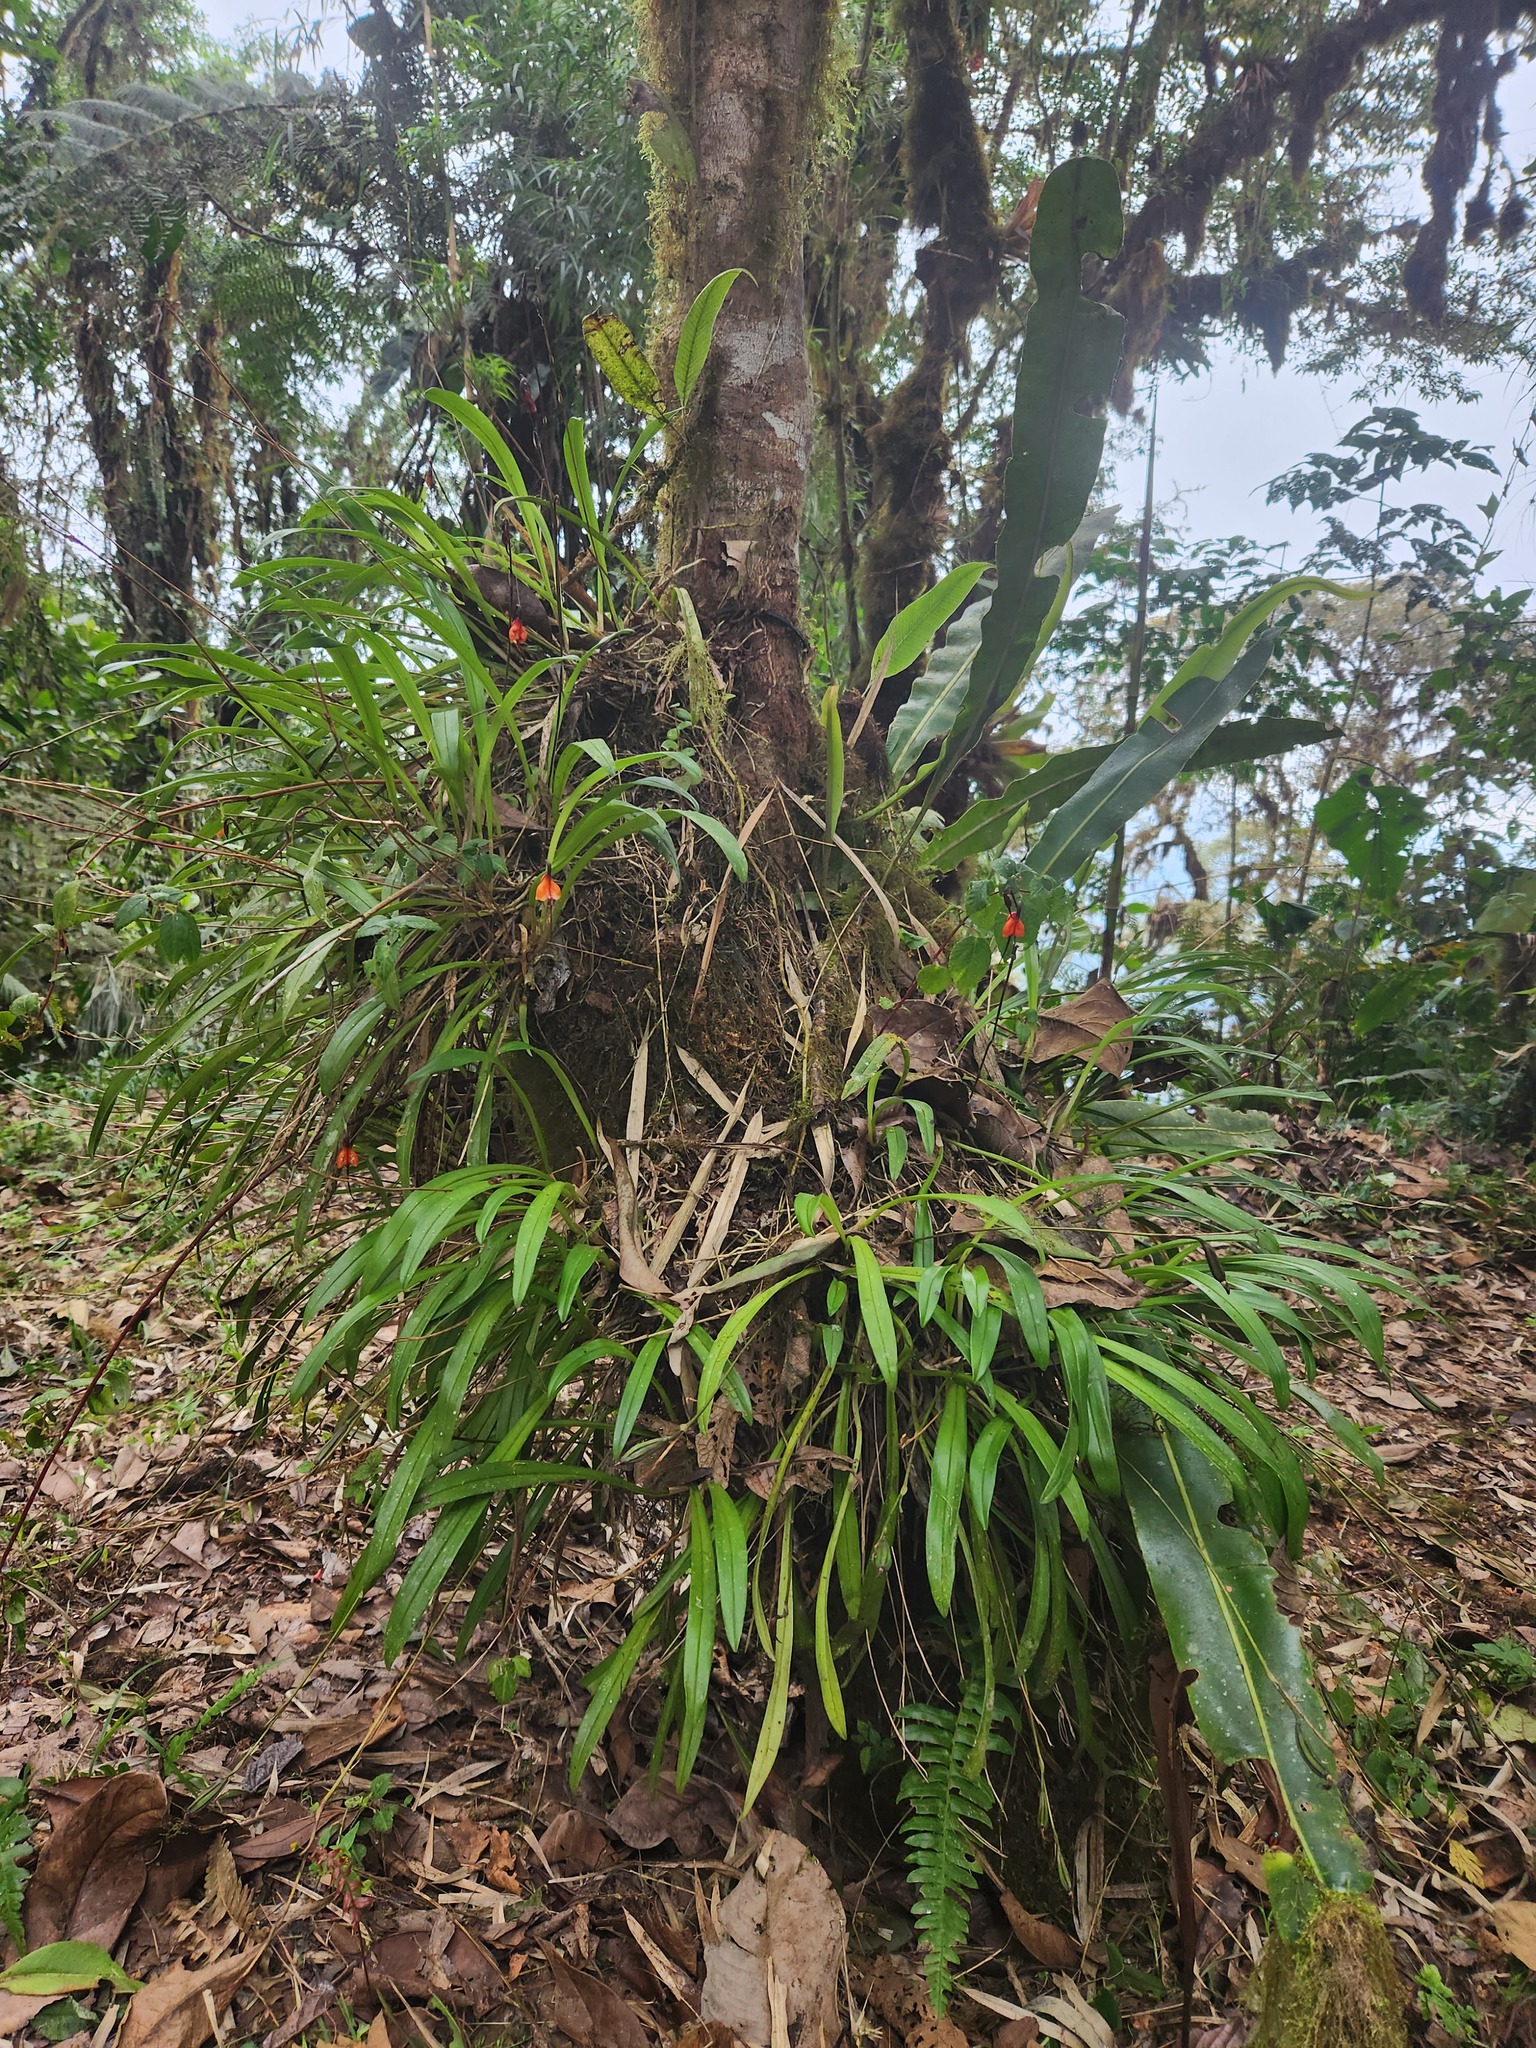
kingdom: Plantae
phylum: Tracheophyta
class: Liliopsida
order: Asparagales
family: Orchidaceae
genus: Dracula
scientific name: Dracula sodiroi
